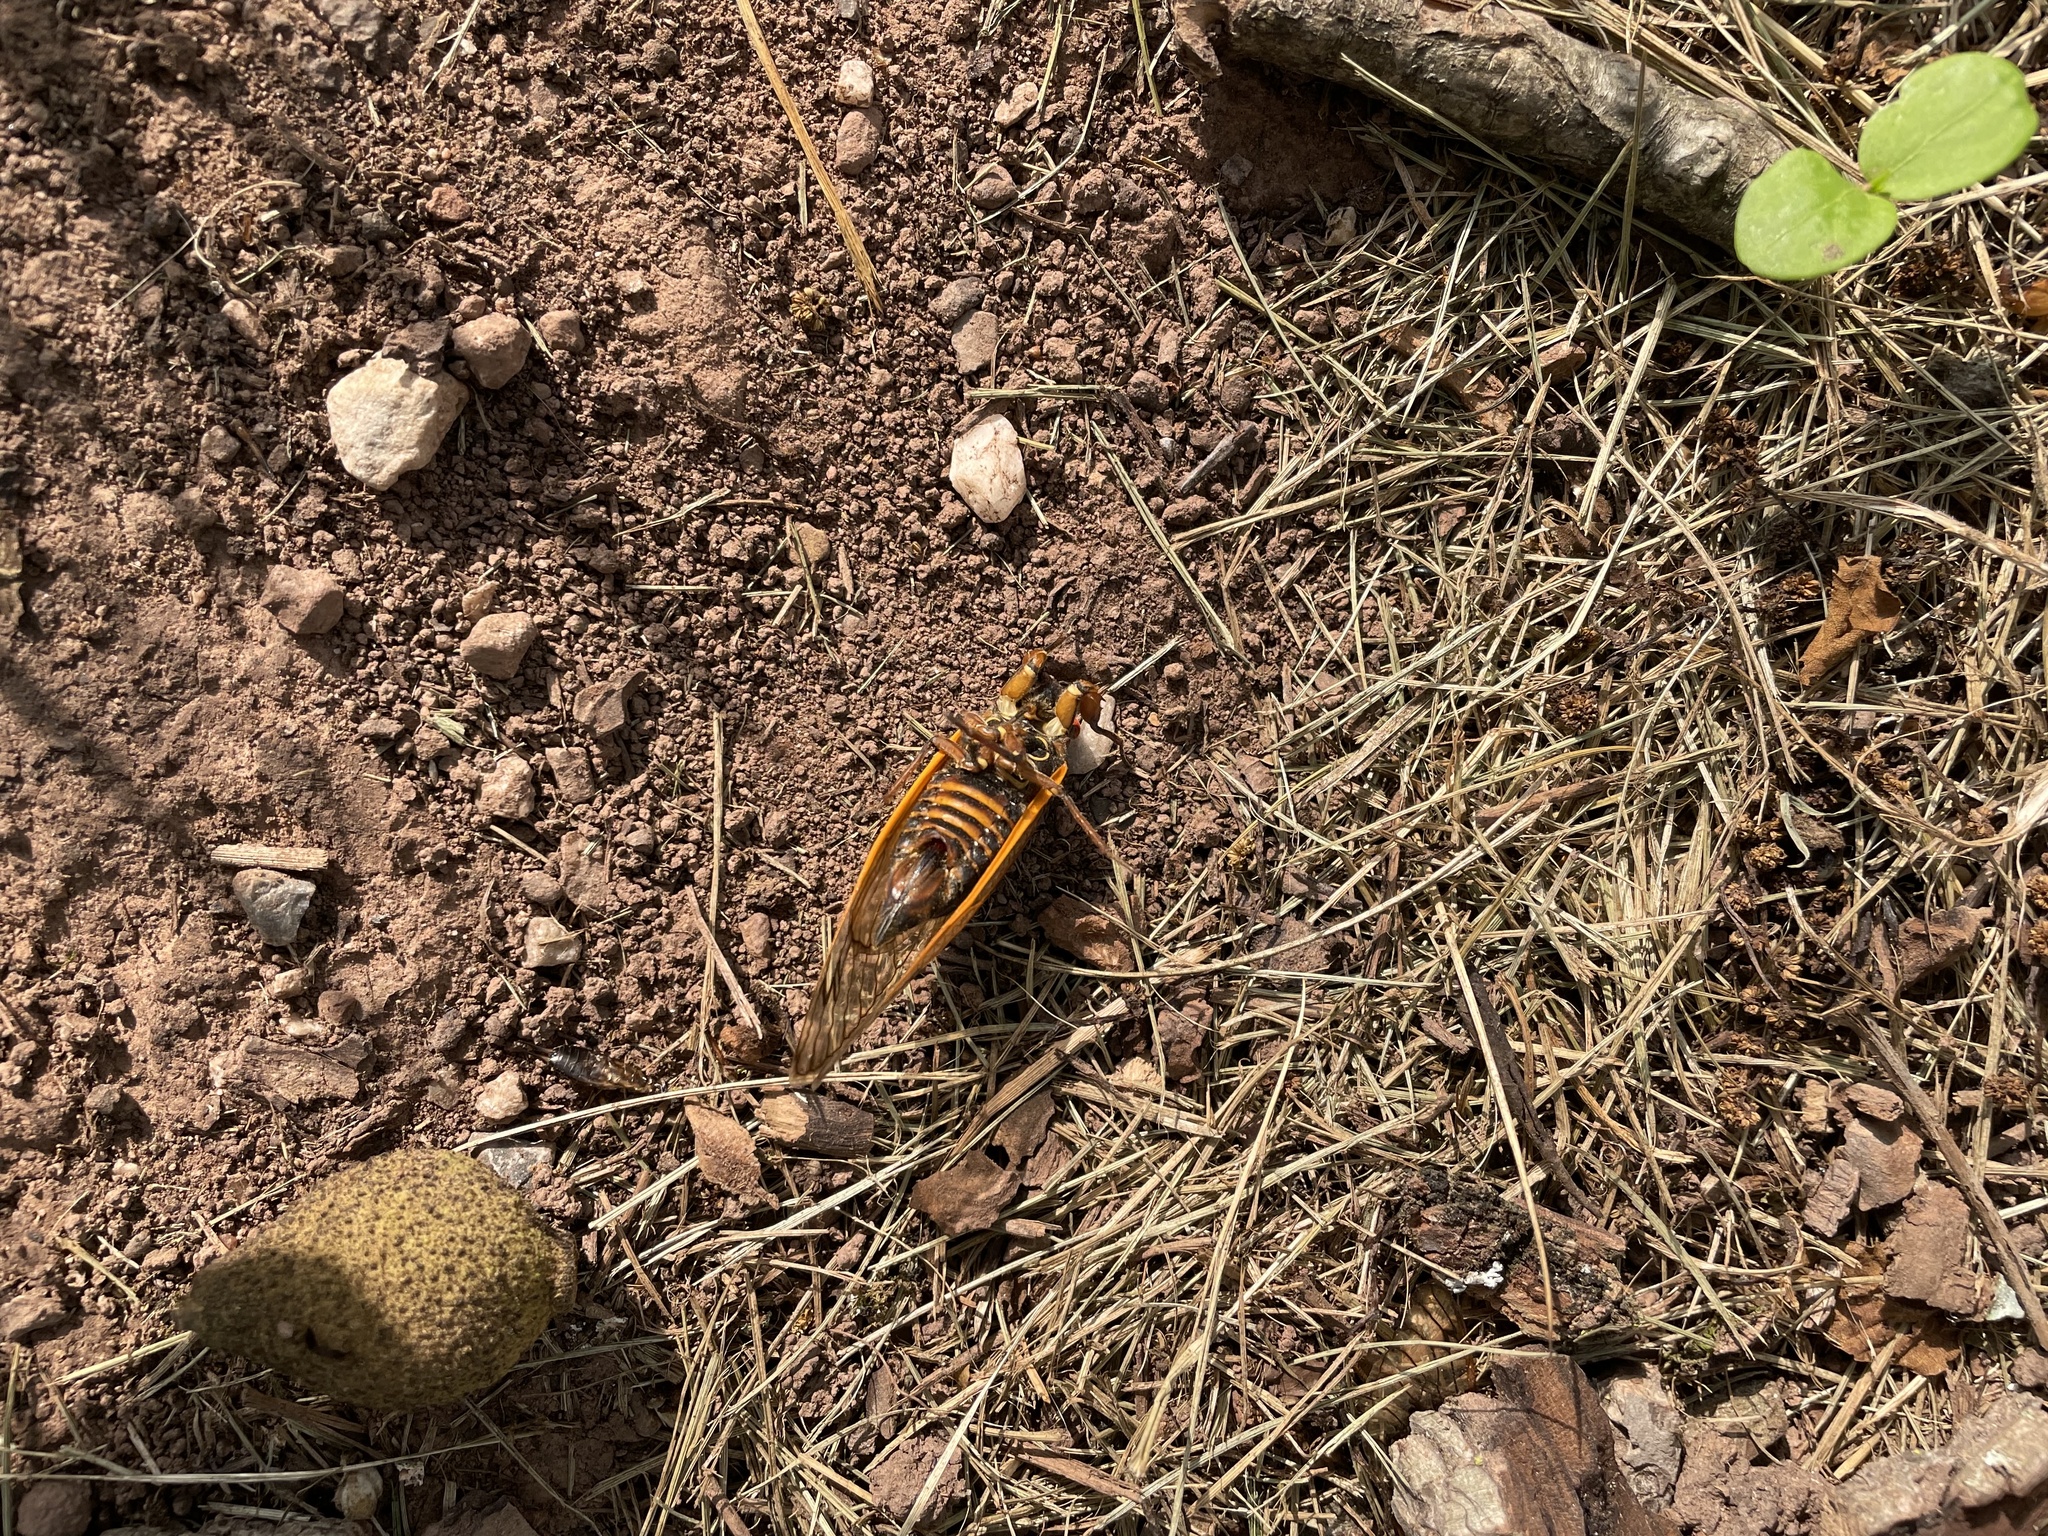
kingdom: Animalia
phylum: Arthropoda
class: Insecta
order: Hemiptera
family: Cicadidae
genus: Magicicada
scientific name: Magicicada septendecim
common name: Periodical cicada
